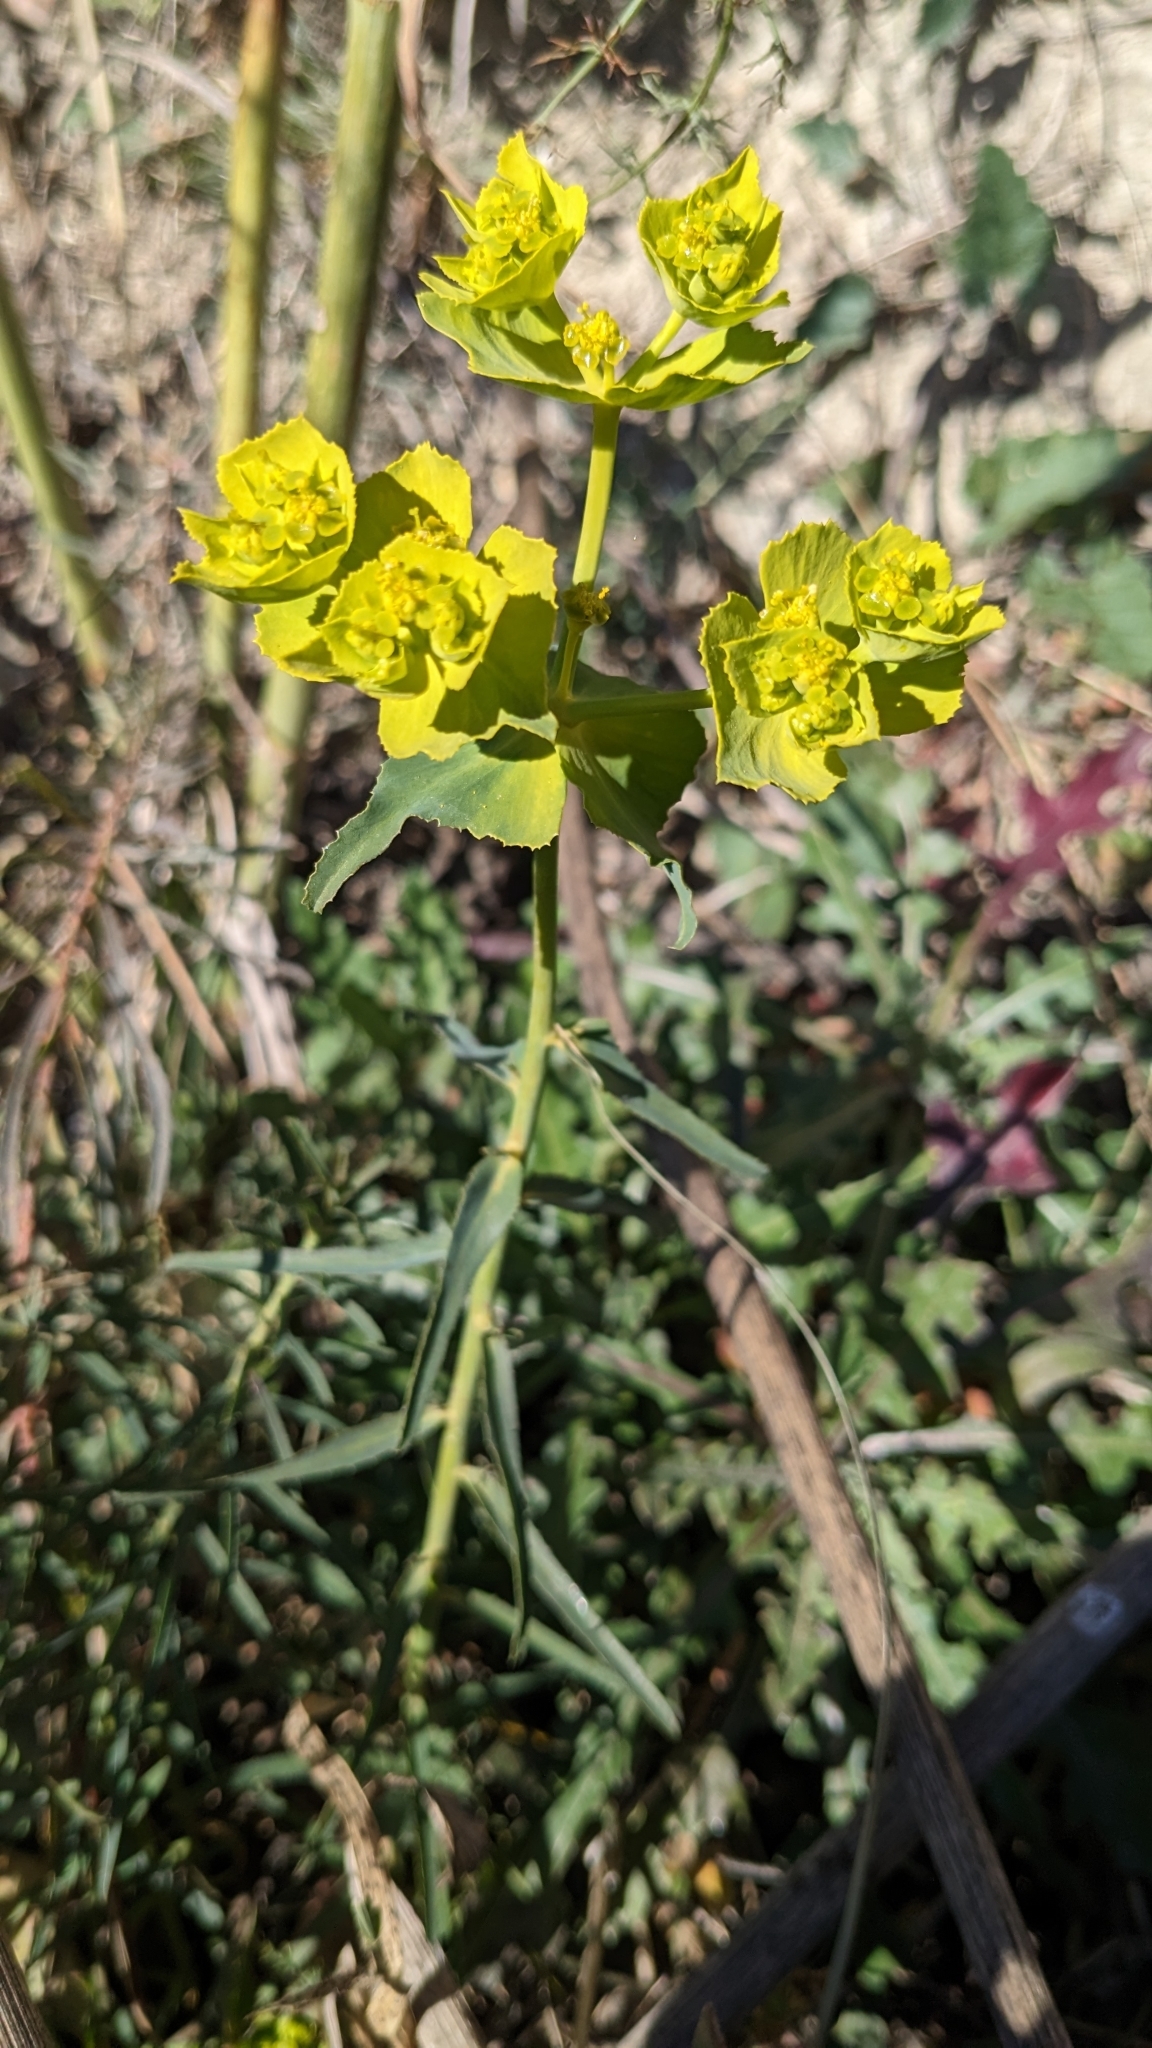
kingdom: Plantae
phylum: Tracheophyta
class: Magnoliopsida
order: Malpighiales
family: Euphorbiaceae
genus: Euphorbia
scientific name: Euphorbia serrata
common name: Serrate spurge
